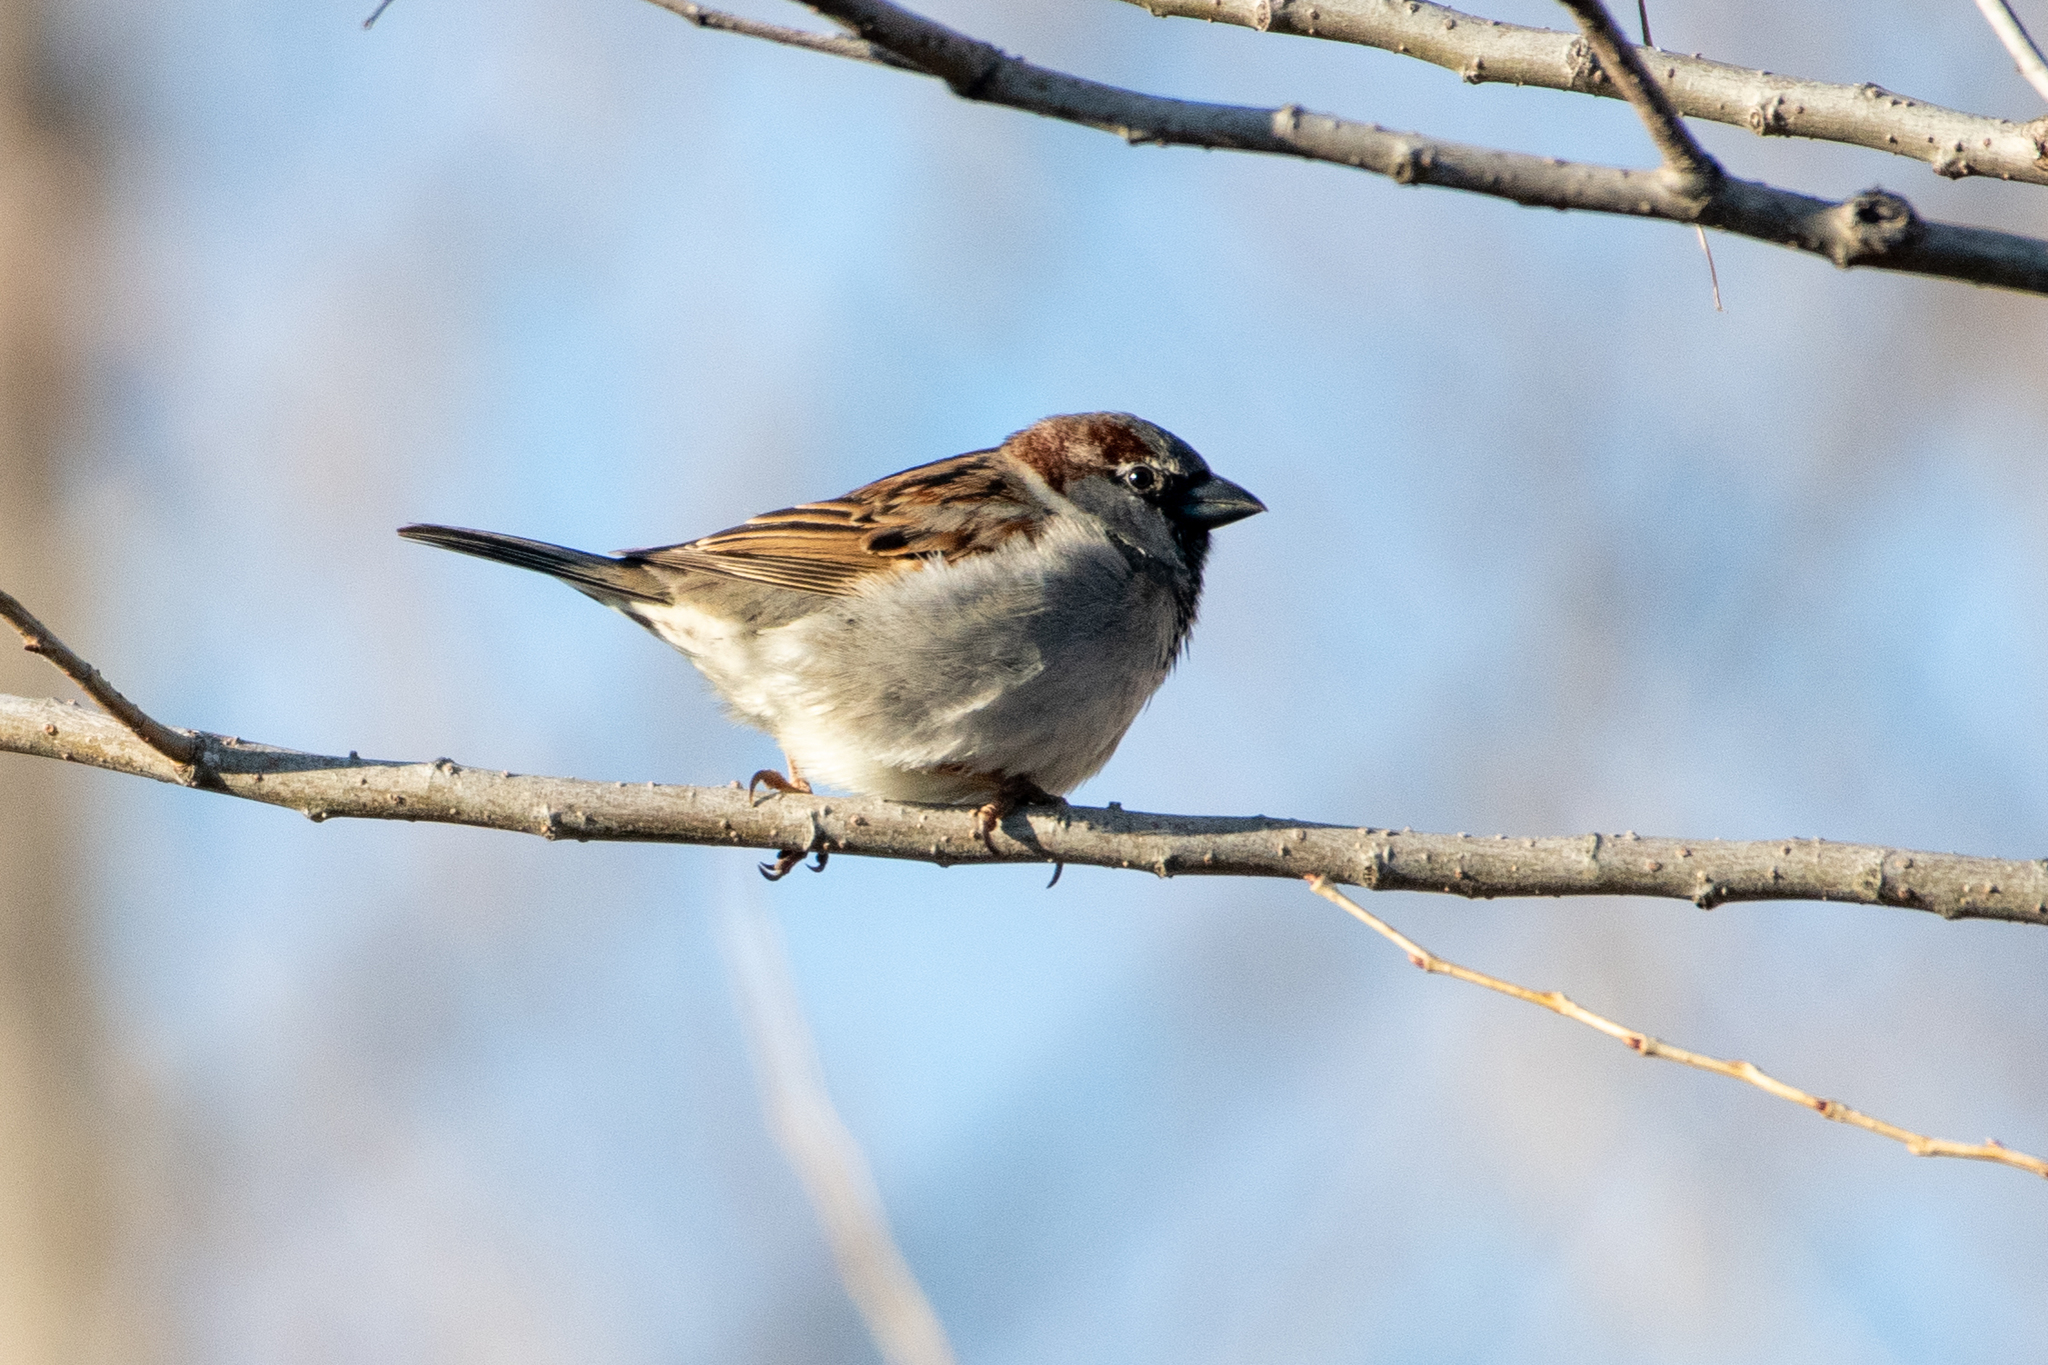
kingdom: Animalia
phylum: Chordata
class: Aves
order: Passeriformes
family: Passeridae
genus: Passer
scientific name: Passer domesticus
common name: House sparrow
